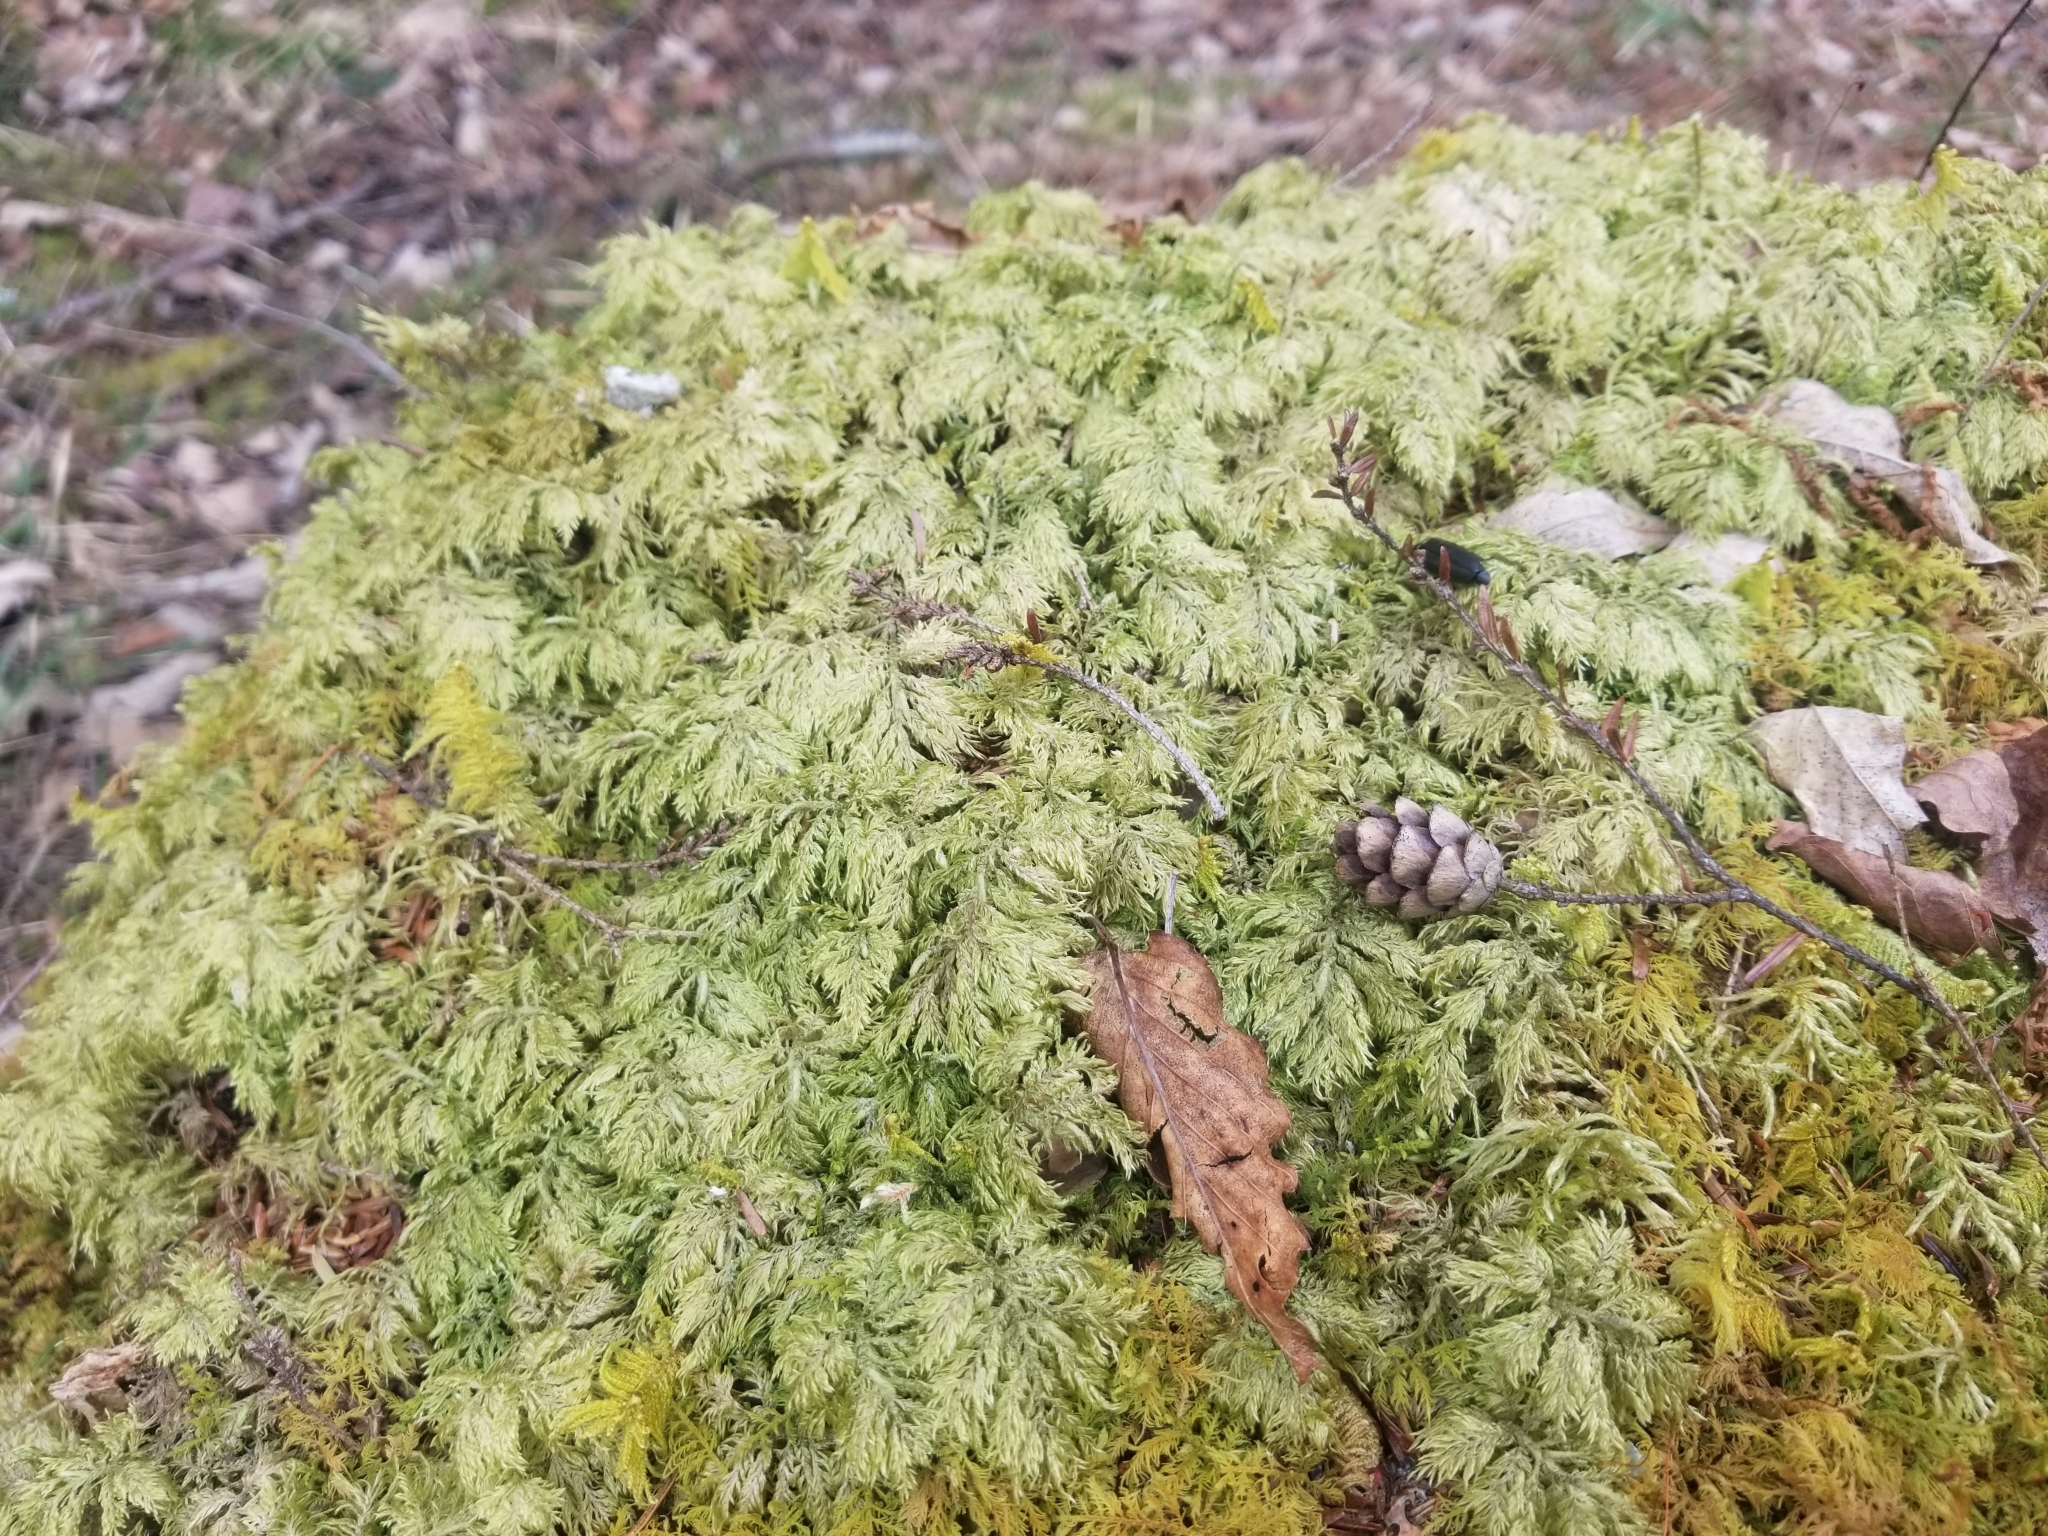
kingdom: Plantae
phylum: Bryophyta
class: Bryopsida
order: Hypnales
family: Hylocomiaceae
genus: Hylocomium
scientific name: Hylocomium splendens
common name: Stairstep moss
